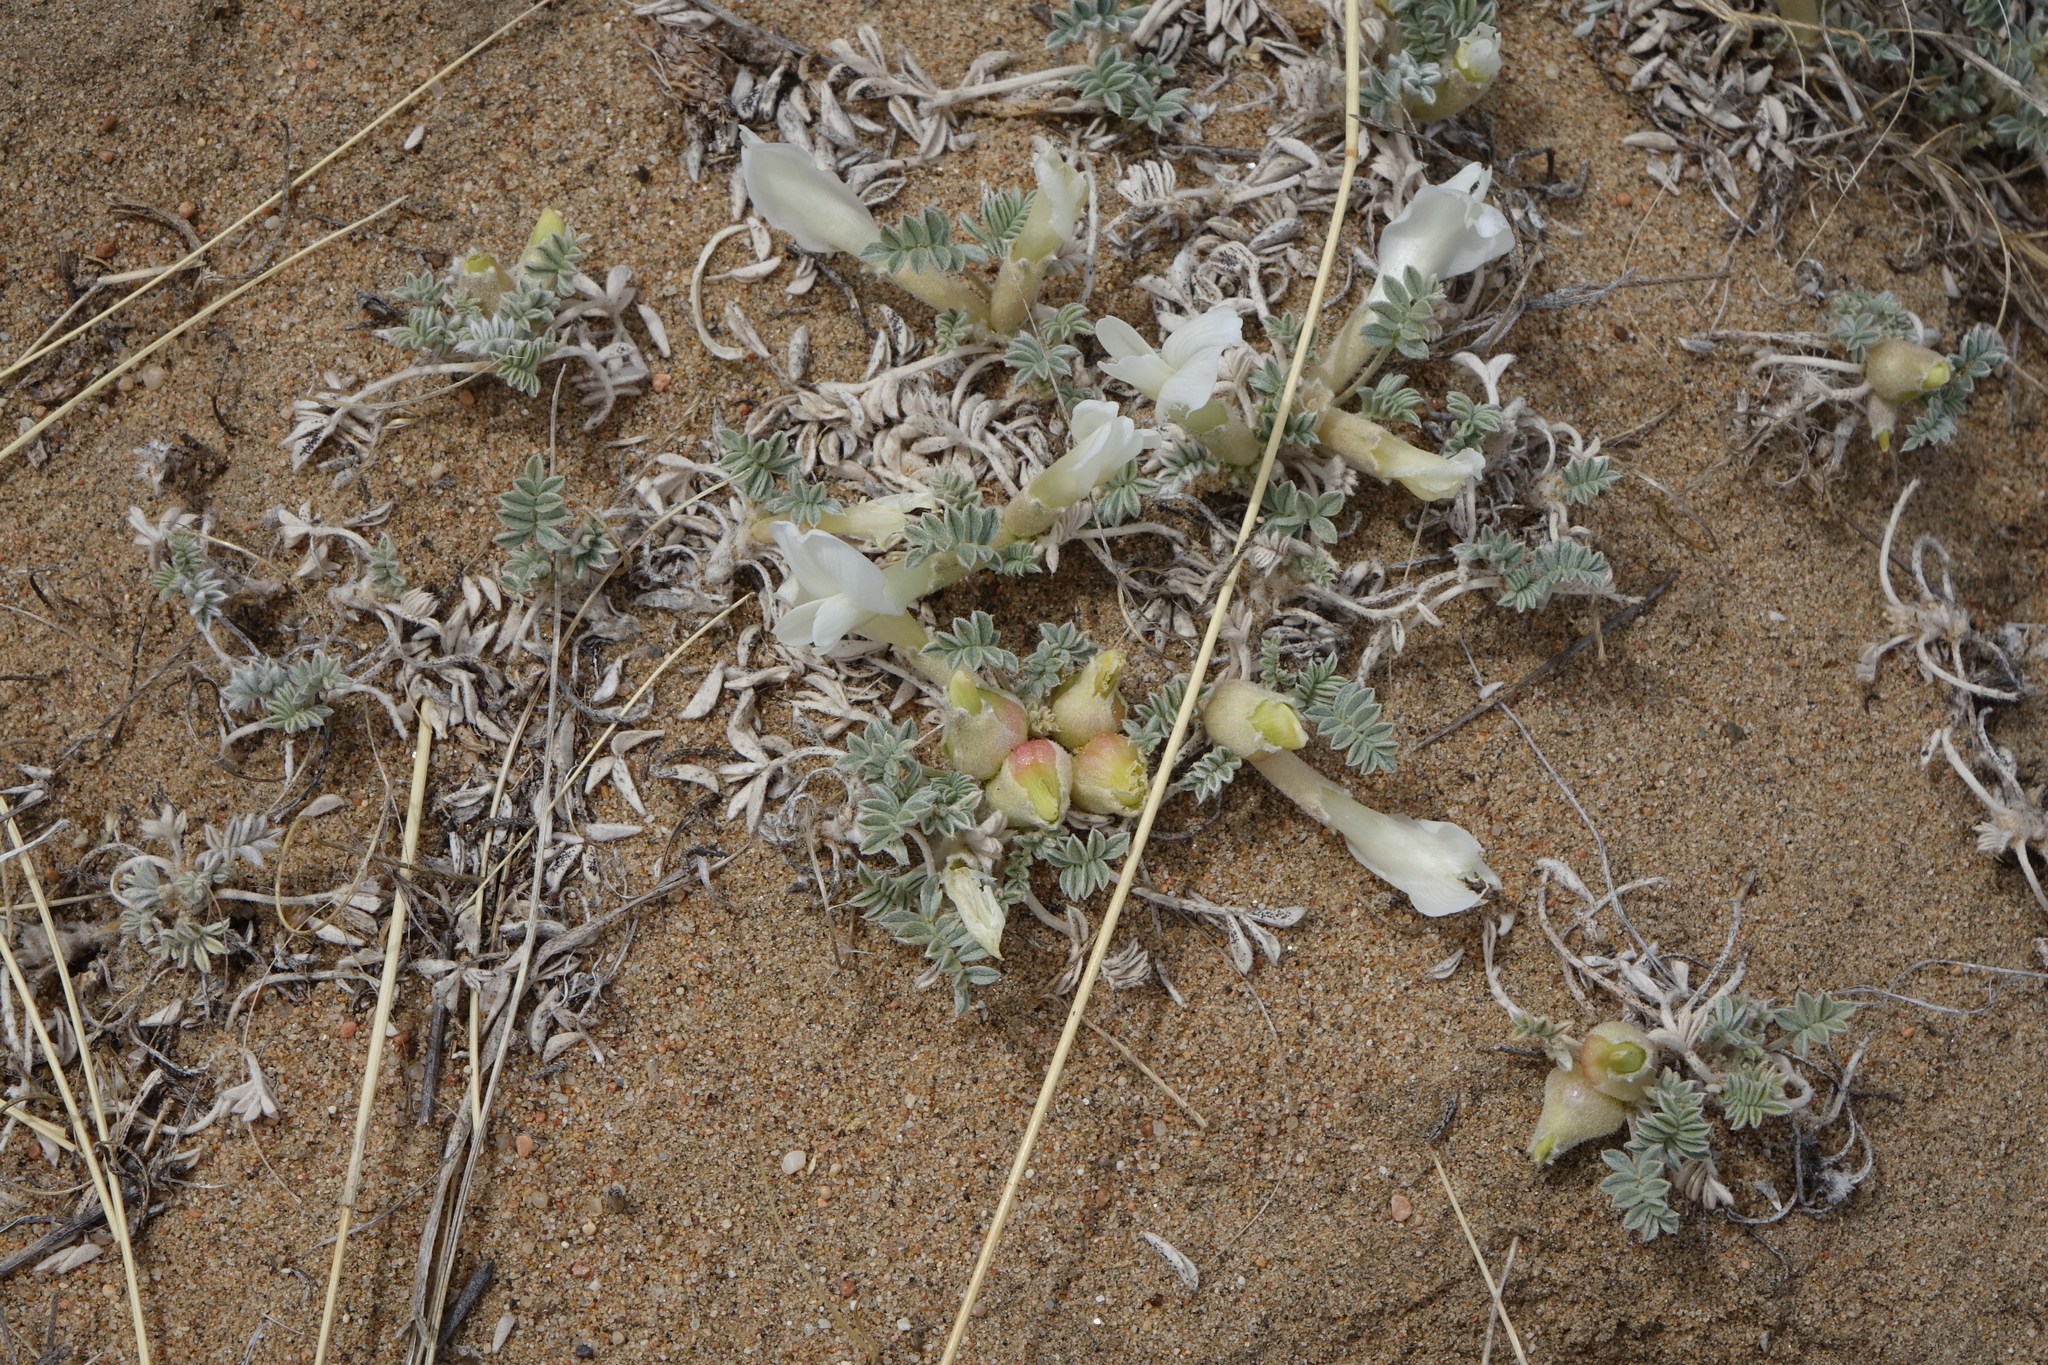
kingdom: Plantae
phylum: Tracheophyta
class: Magnoliopsida
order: Fabales
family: Fabaceae
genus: Astragalus
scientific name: Astragalus teskhemicus
